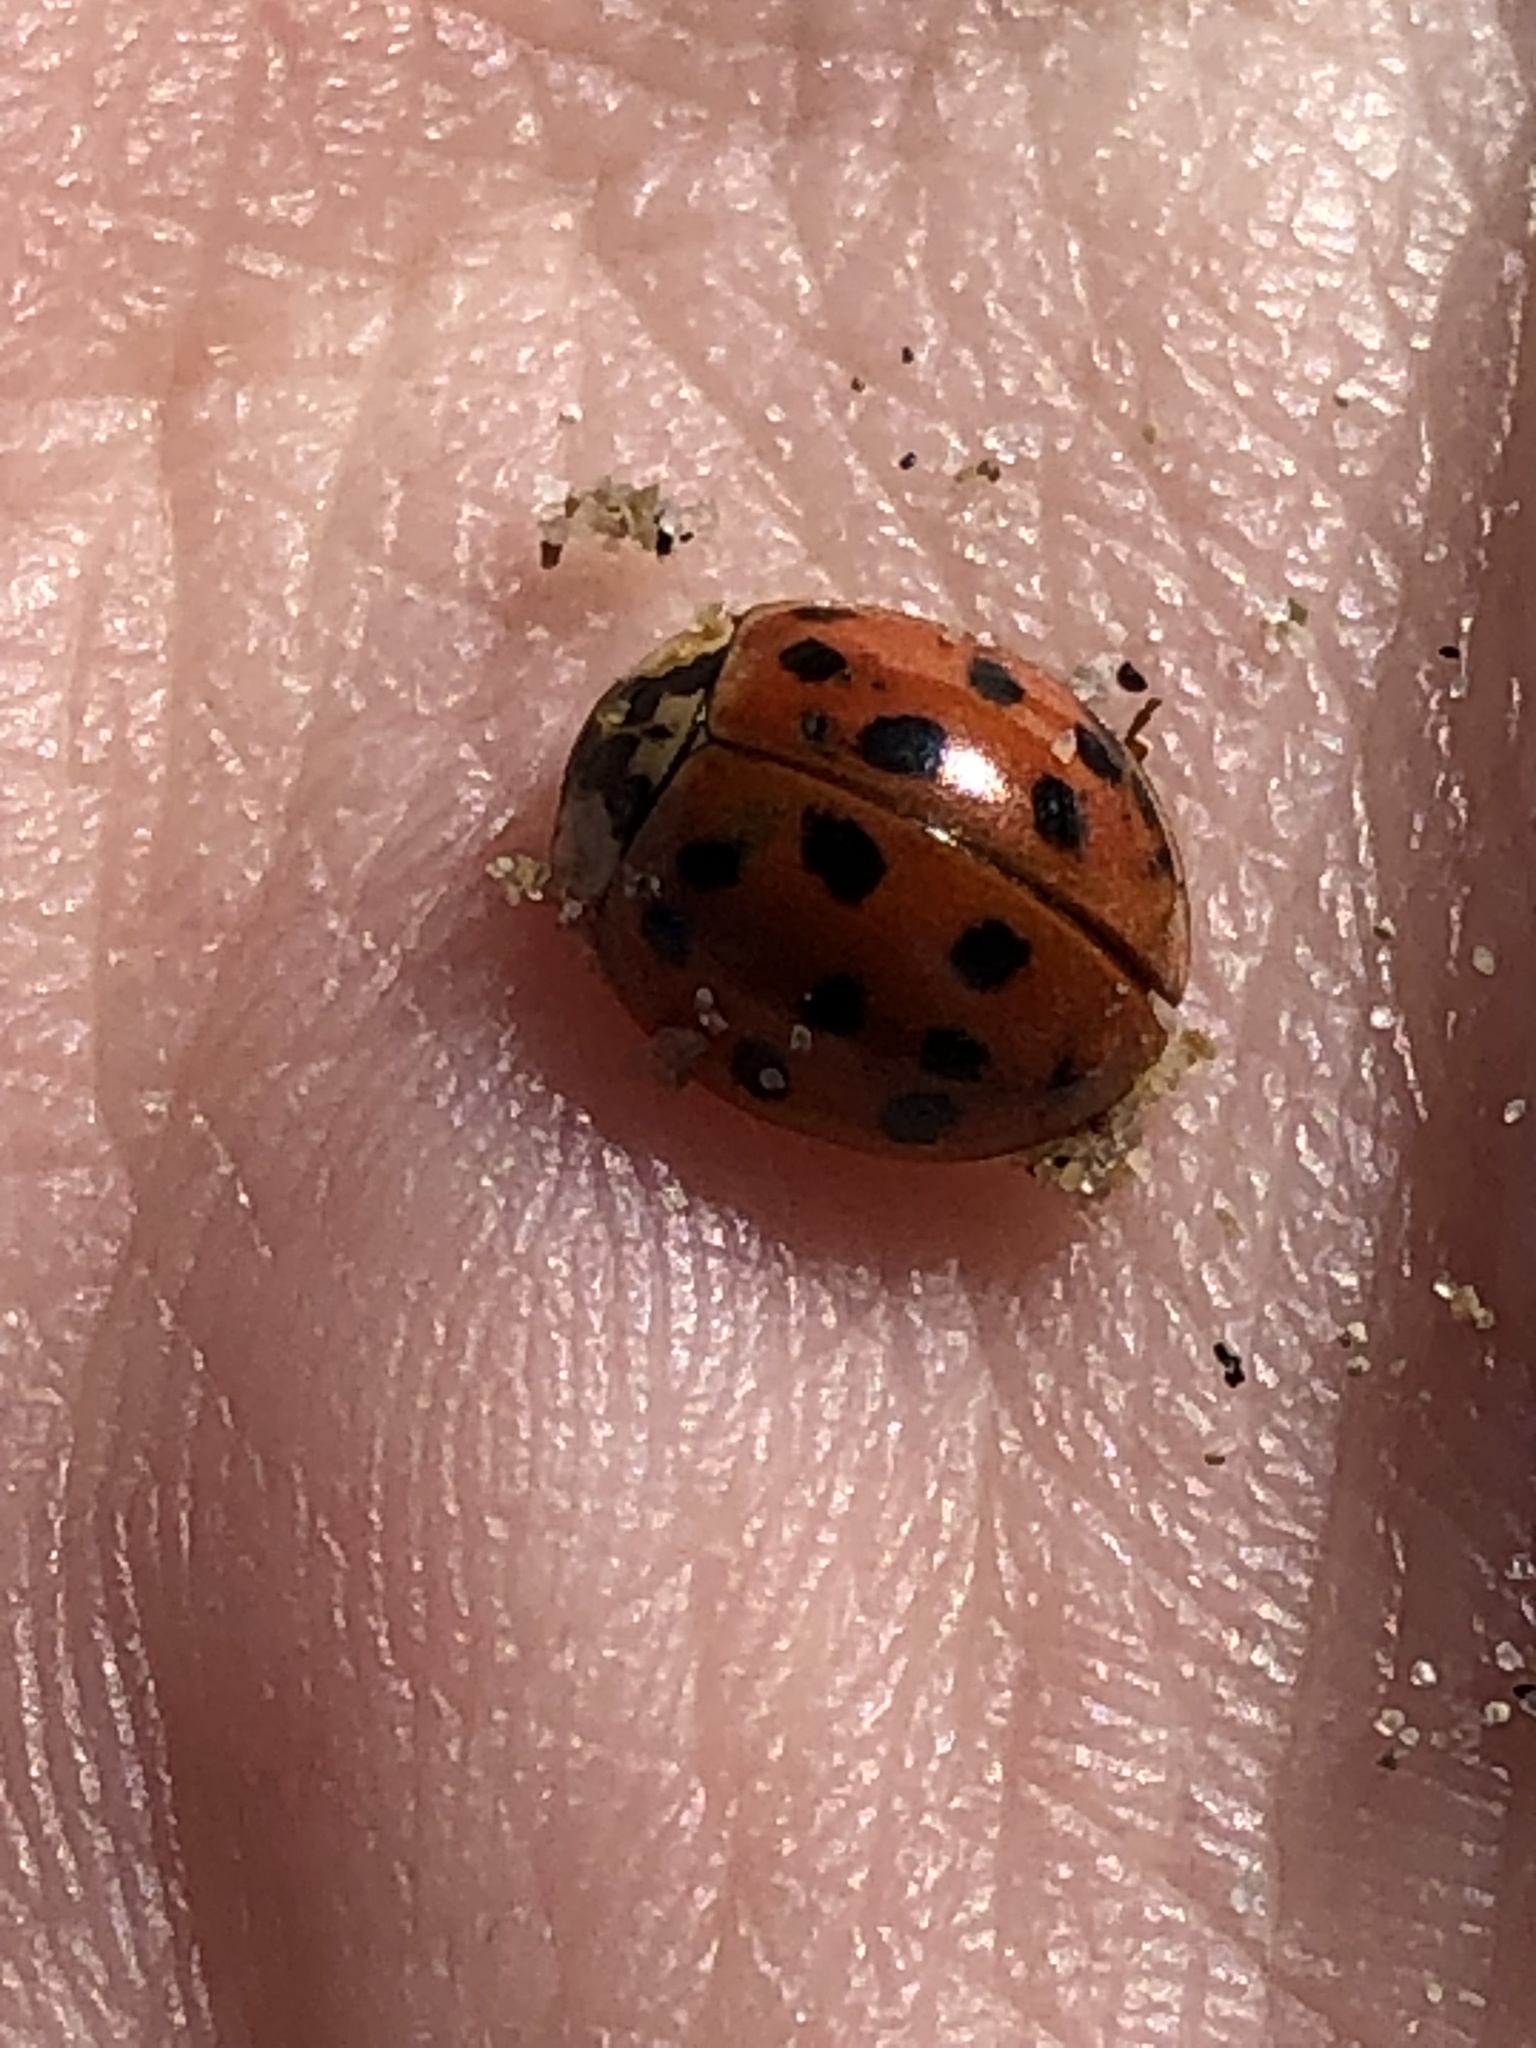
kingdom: Animalia
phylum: Arthropoda
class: Insecta
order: Coleoptera
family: Coccinellidae
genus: Harmonia
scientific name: Harmonia axyridis
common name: Harlequin ladybird
